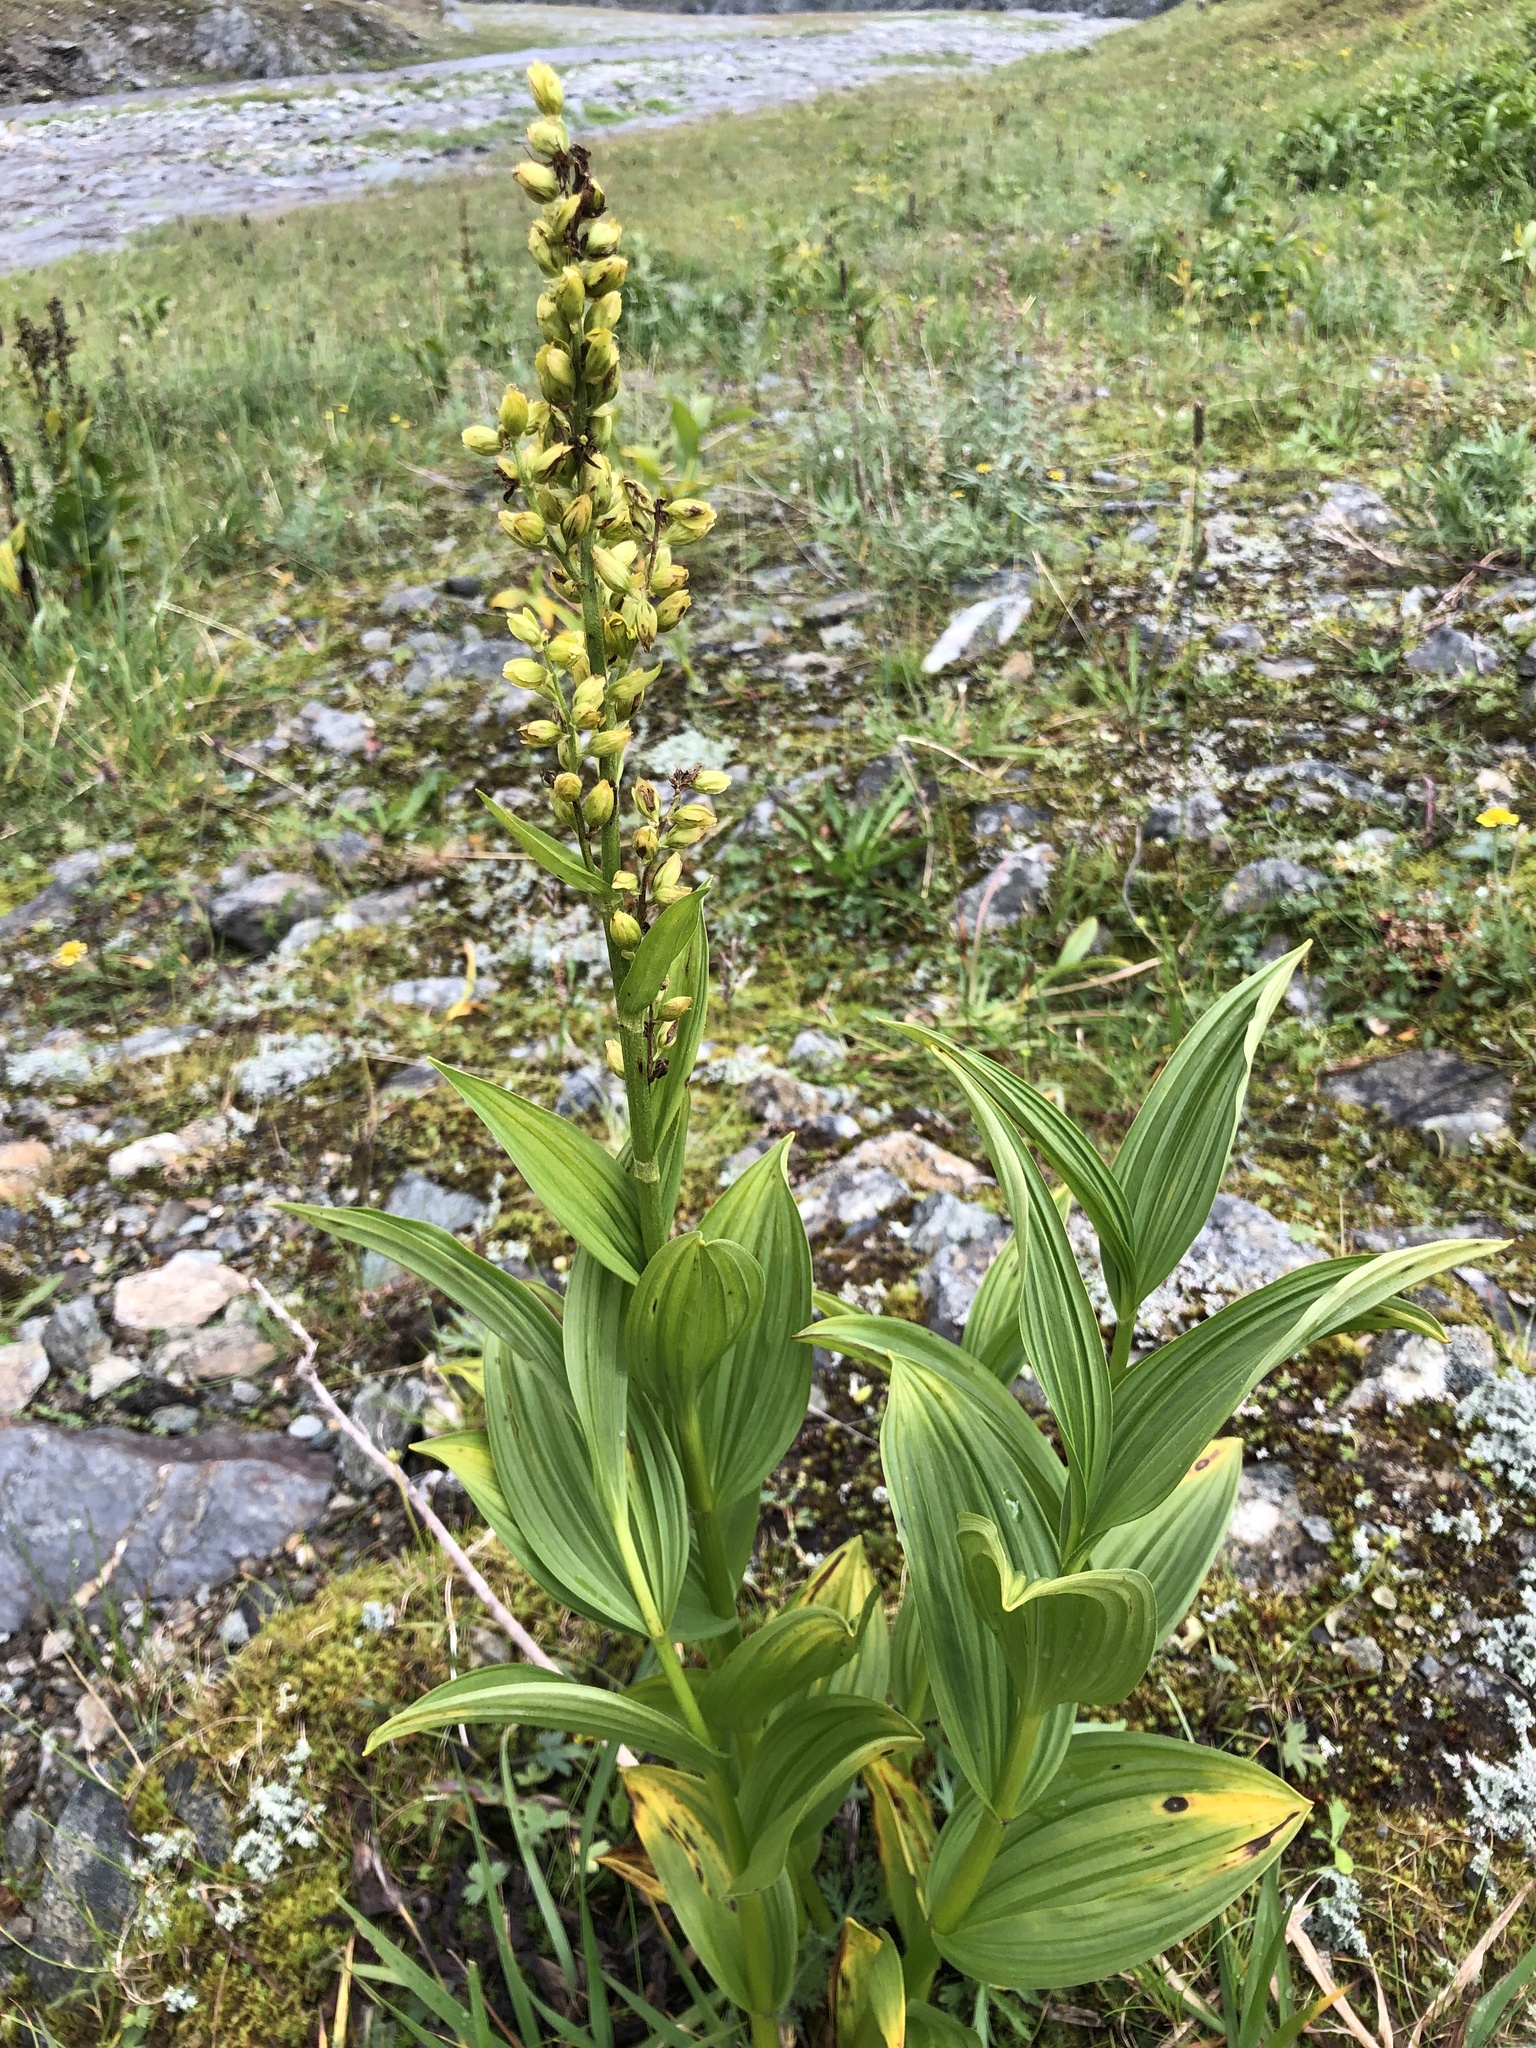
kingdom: Plantae
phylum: Tracheophyta
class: Liliopsida
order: Liliales
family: Melanthiaceae
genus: Veratrum
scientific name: Veratrum lobelianum
